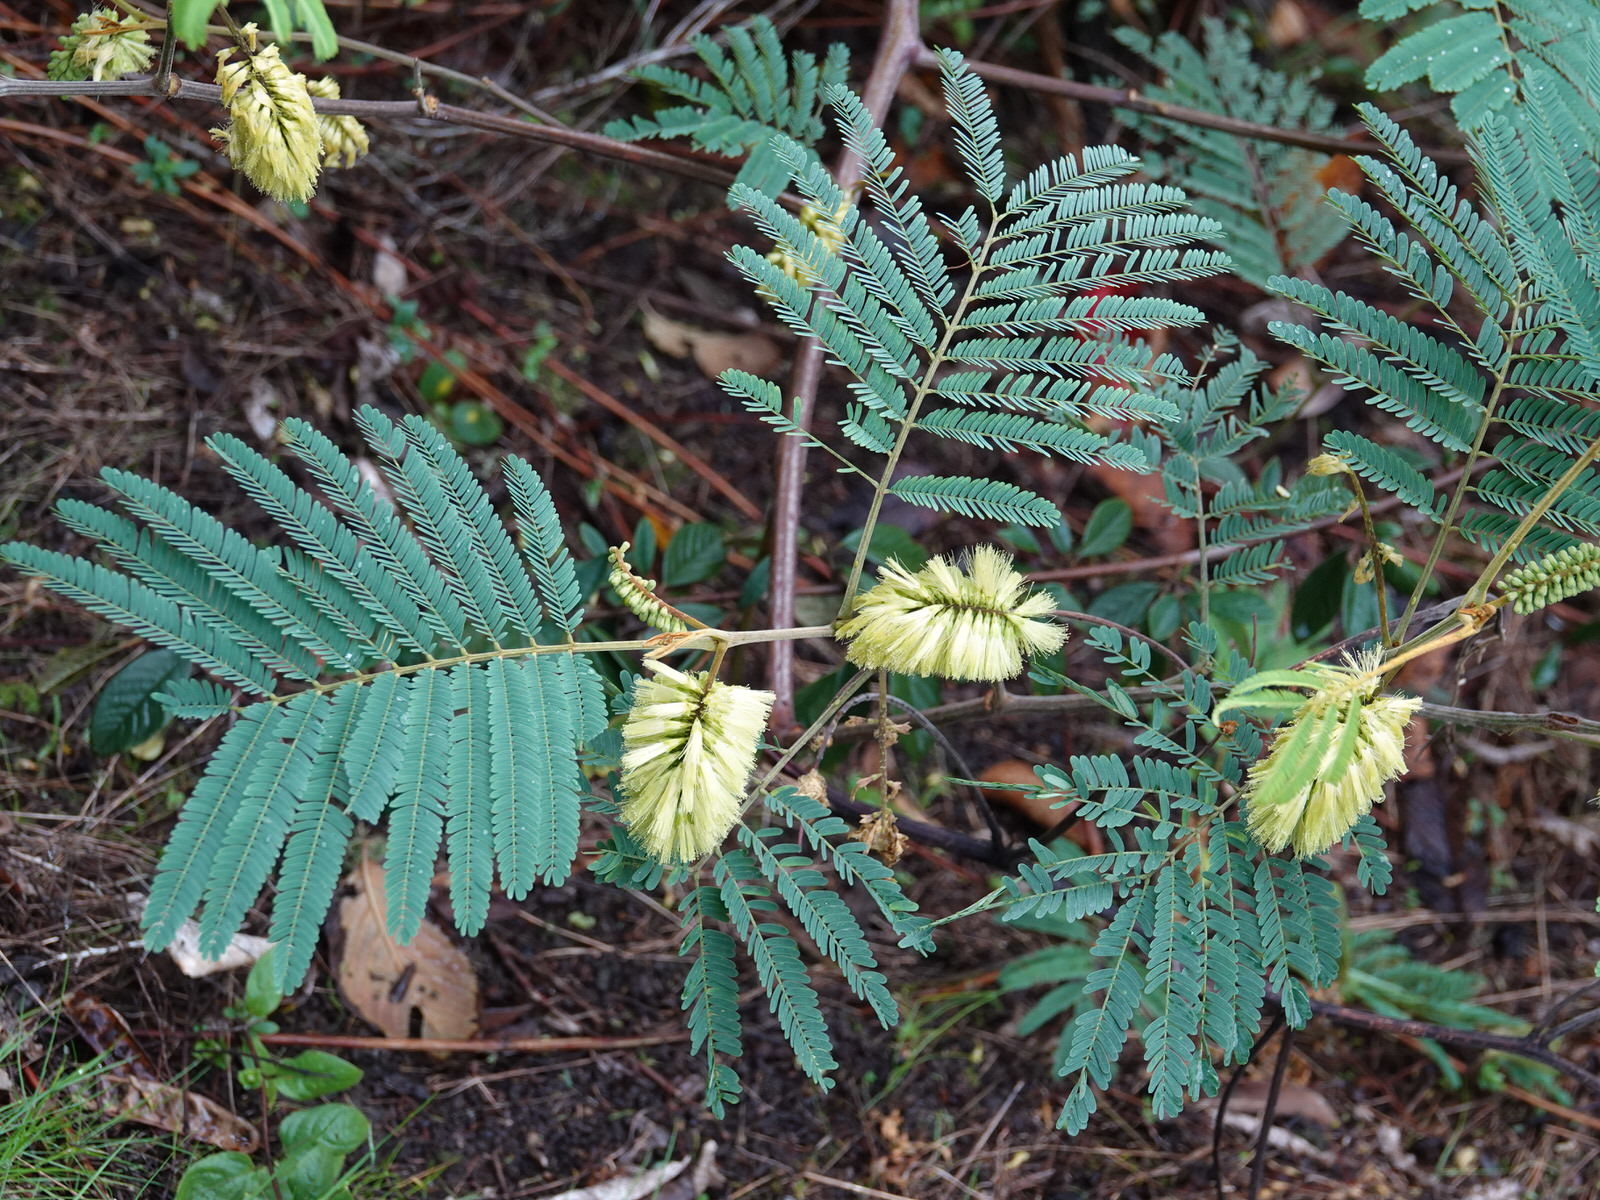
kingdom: Plantae
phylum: Tracheophyta
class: Magnoliopsida
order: Fabales
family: Fabaceae
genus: Paraserianthes
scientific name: Paraserianthes lophantha
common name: Plume albizia
